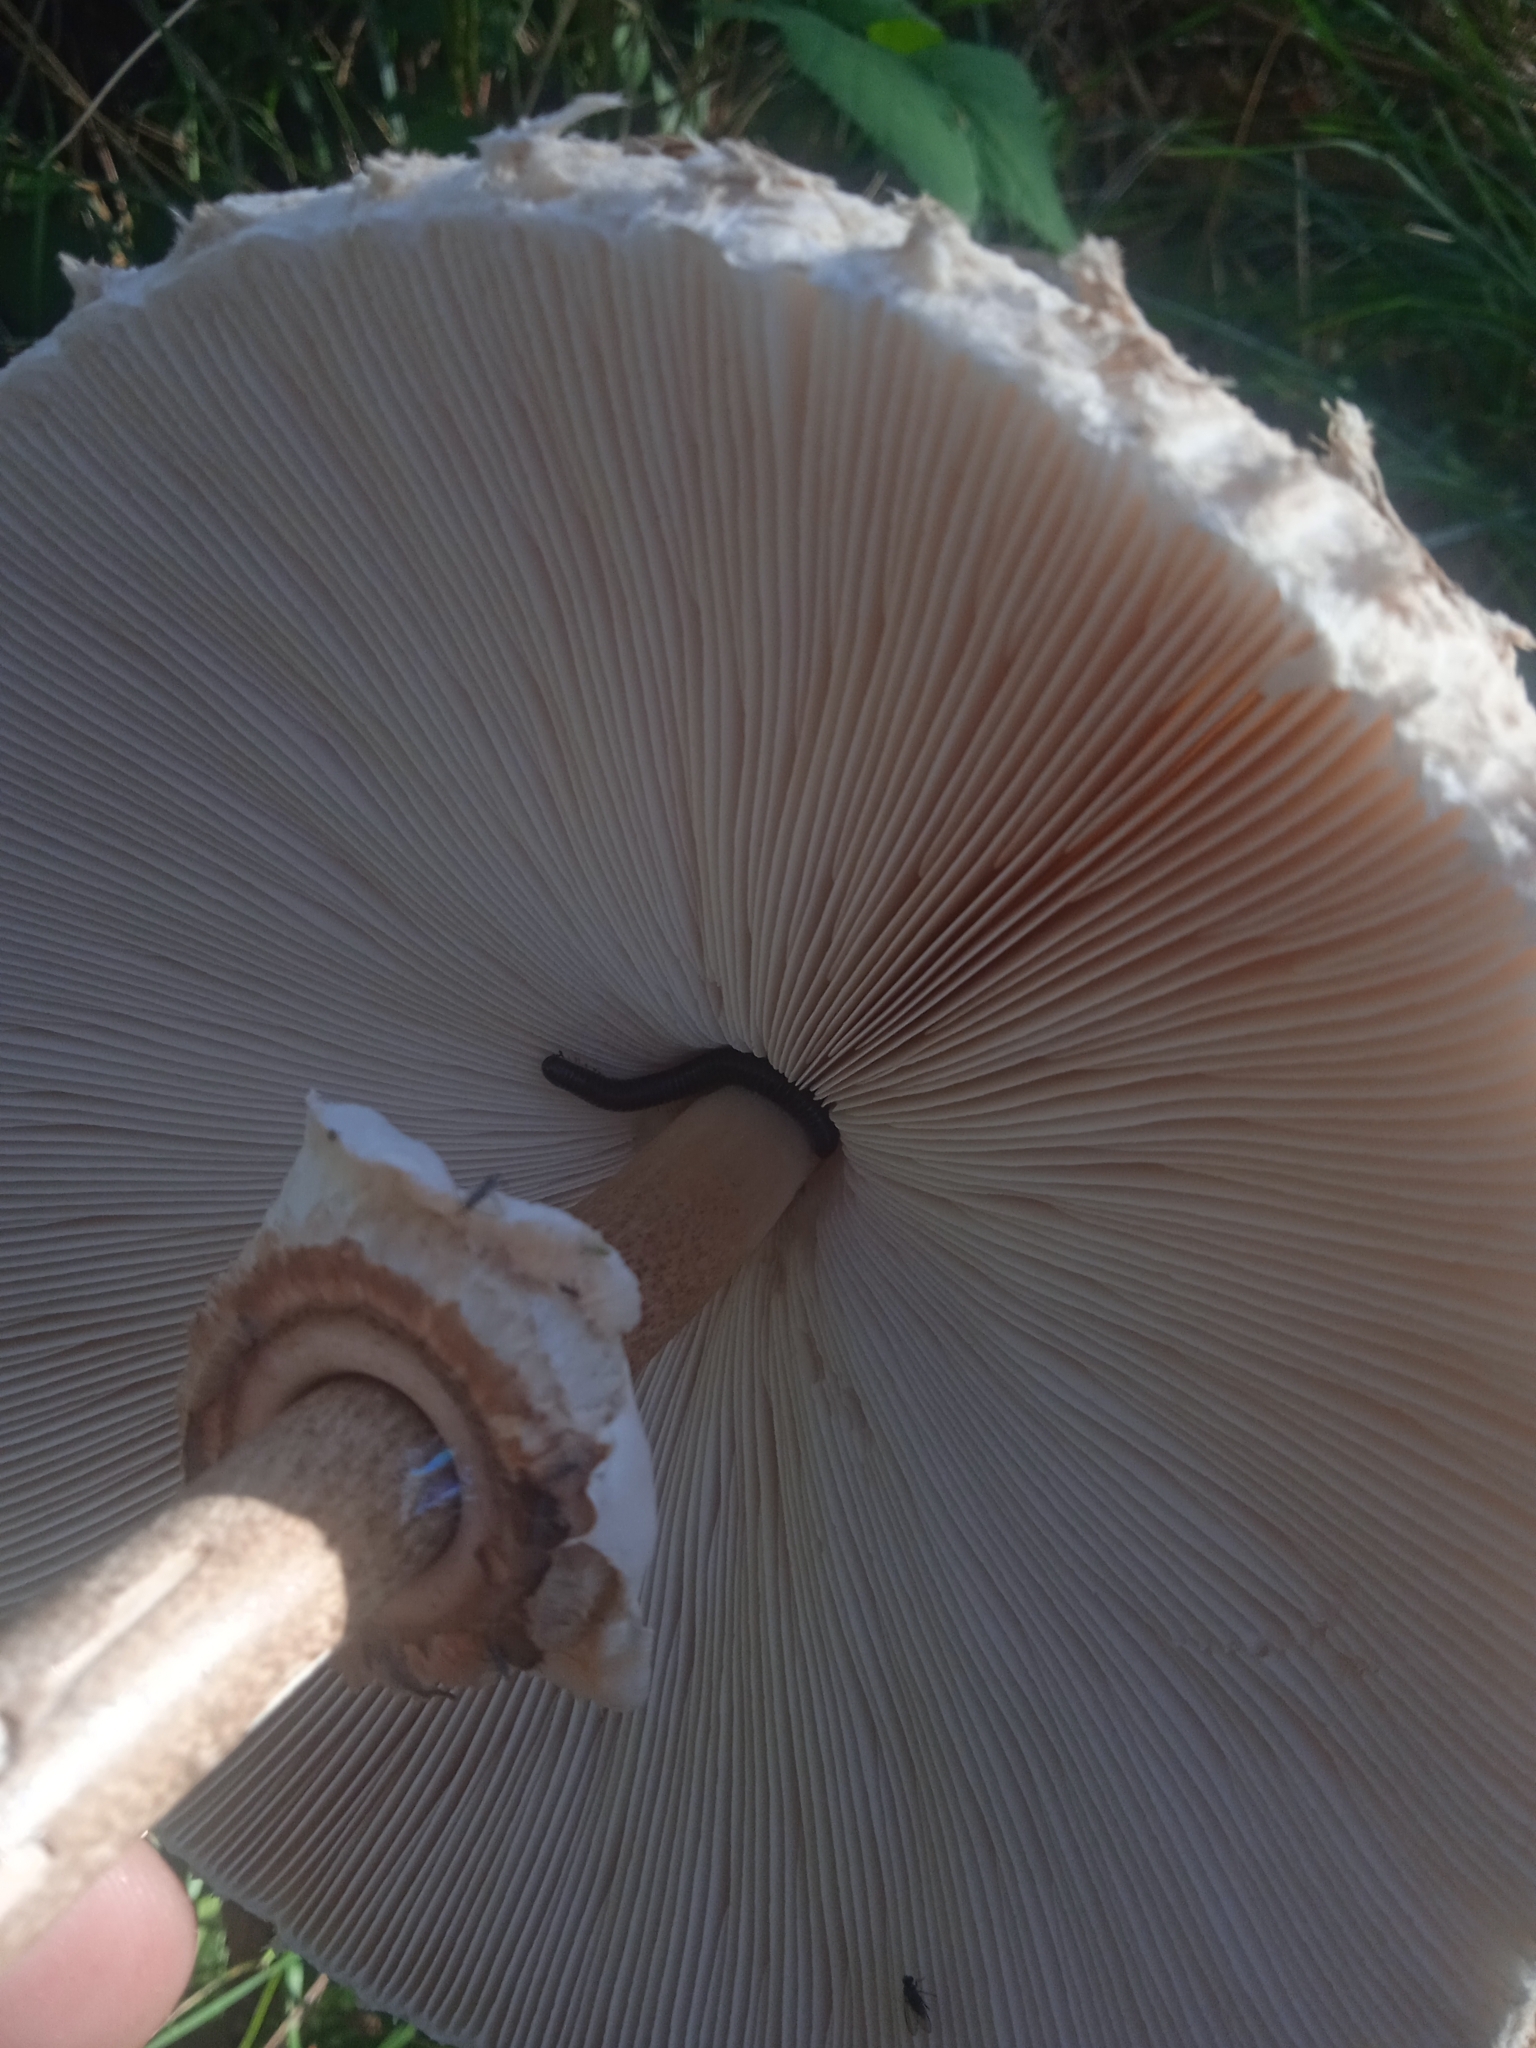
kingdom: Fungi
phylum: Basidiomycota
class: Agaricomycetes
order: Agaricales
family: Agaricaceae
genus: Macrolepiota
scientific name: Macrolepiota procera
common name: Parasol
